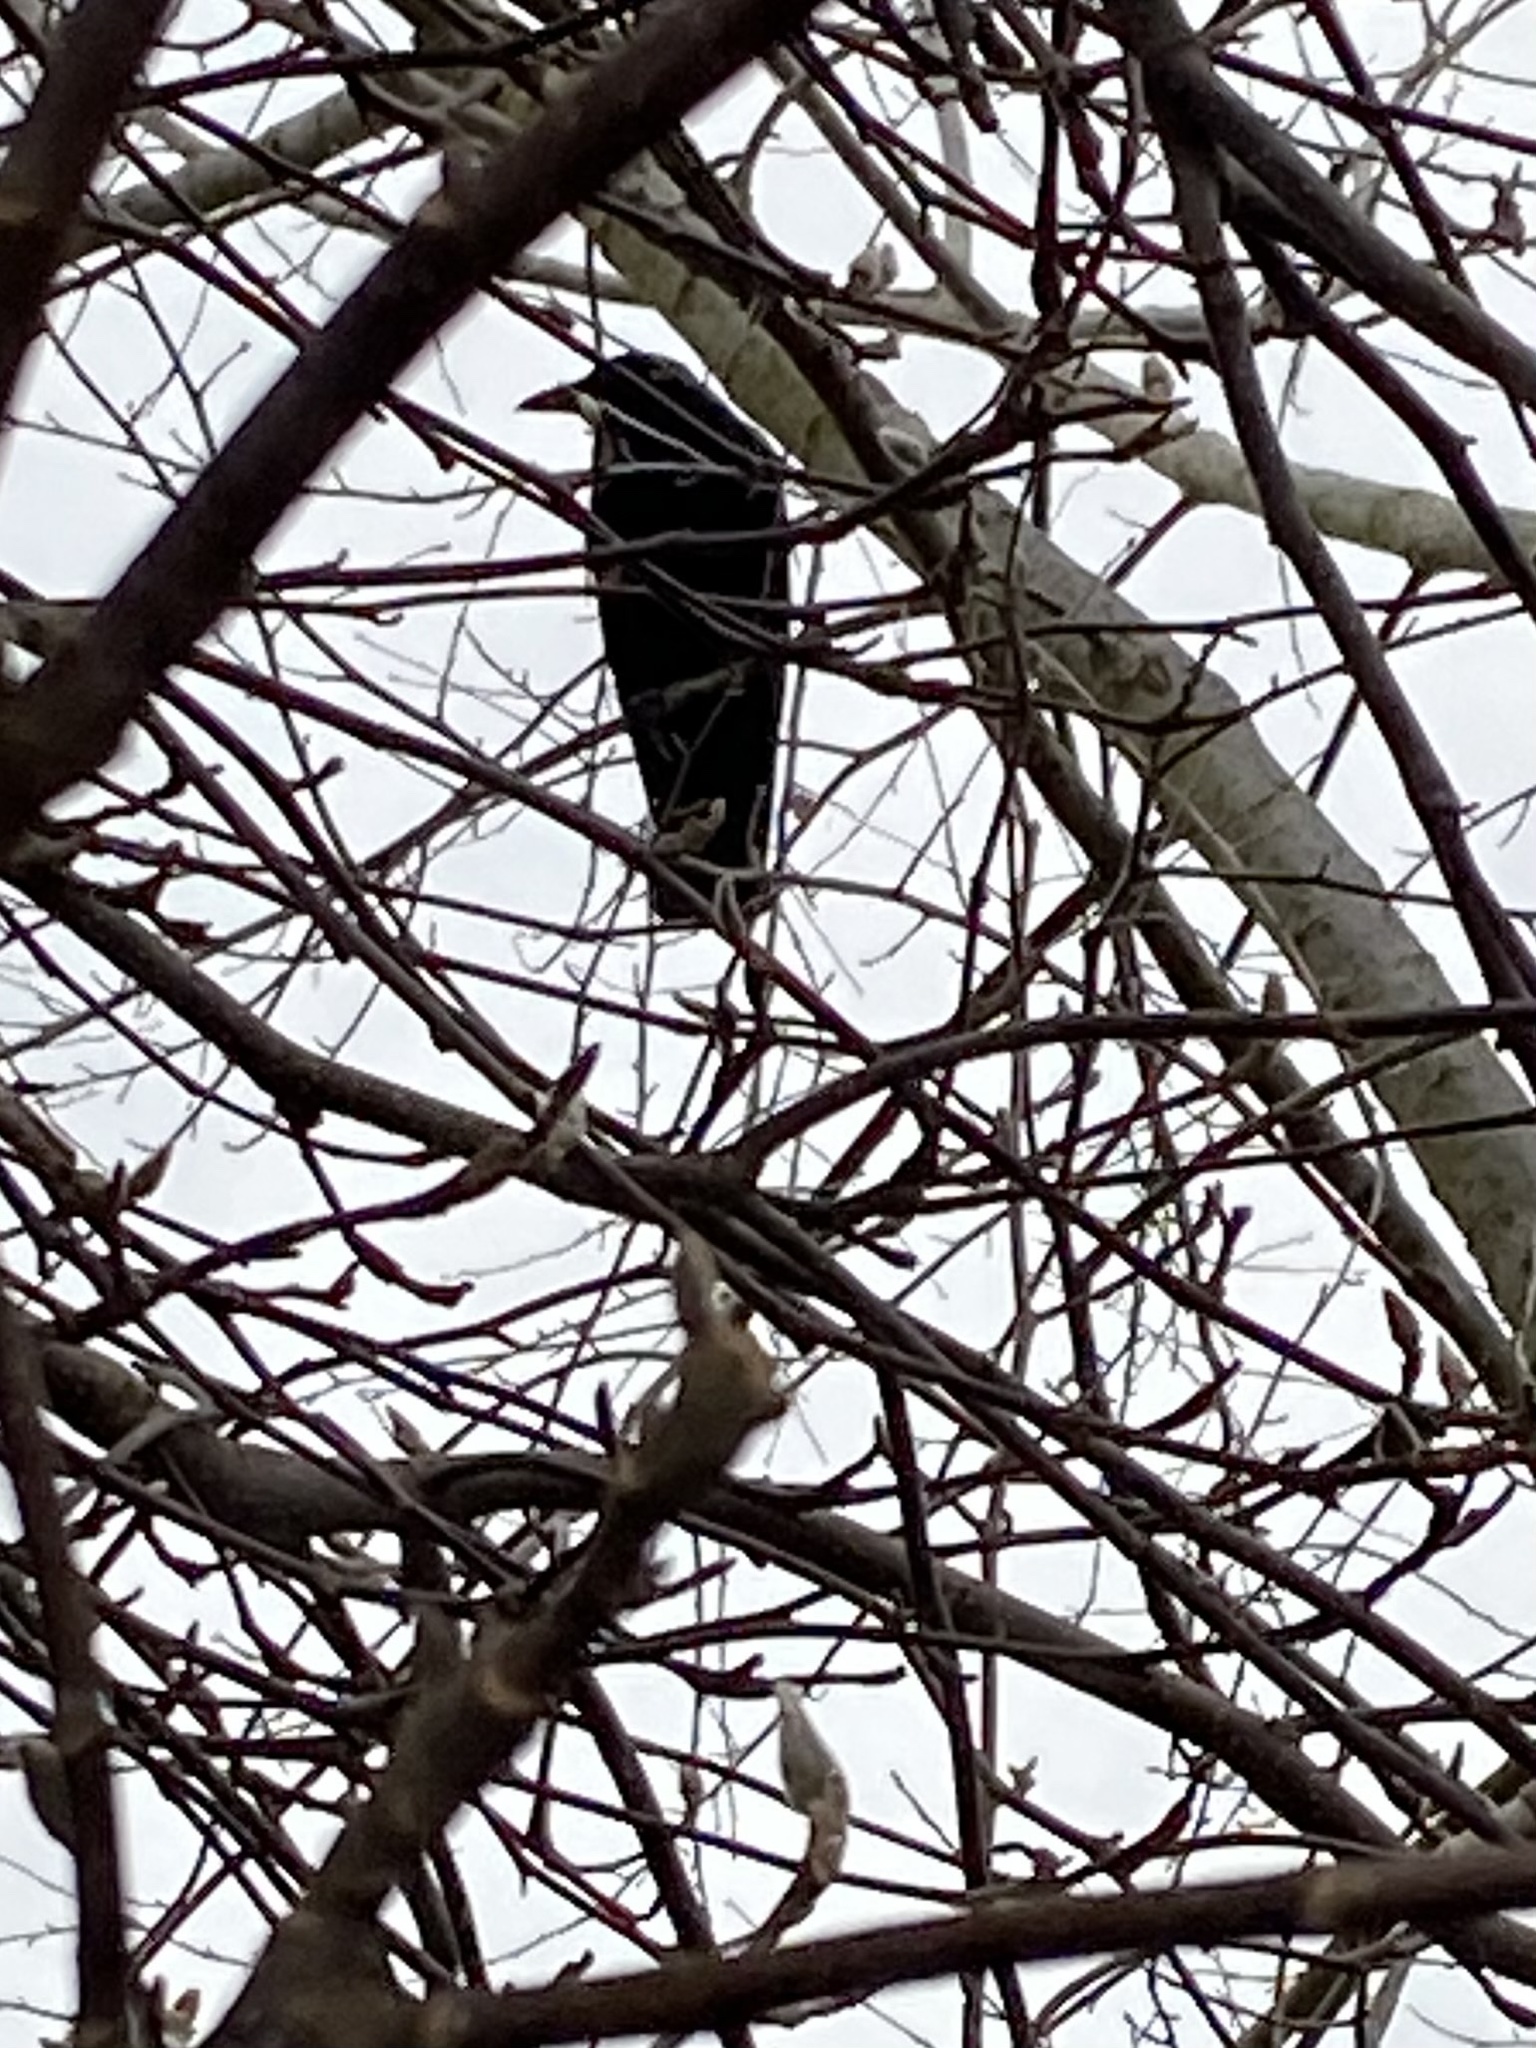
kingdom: Animalia
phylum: Chordata
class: Aves
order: Passeriformes
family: Corvidae
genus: Corvus
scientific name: Corvus brachyrhynchos
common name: American crow
